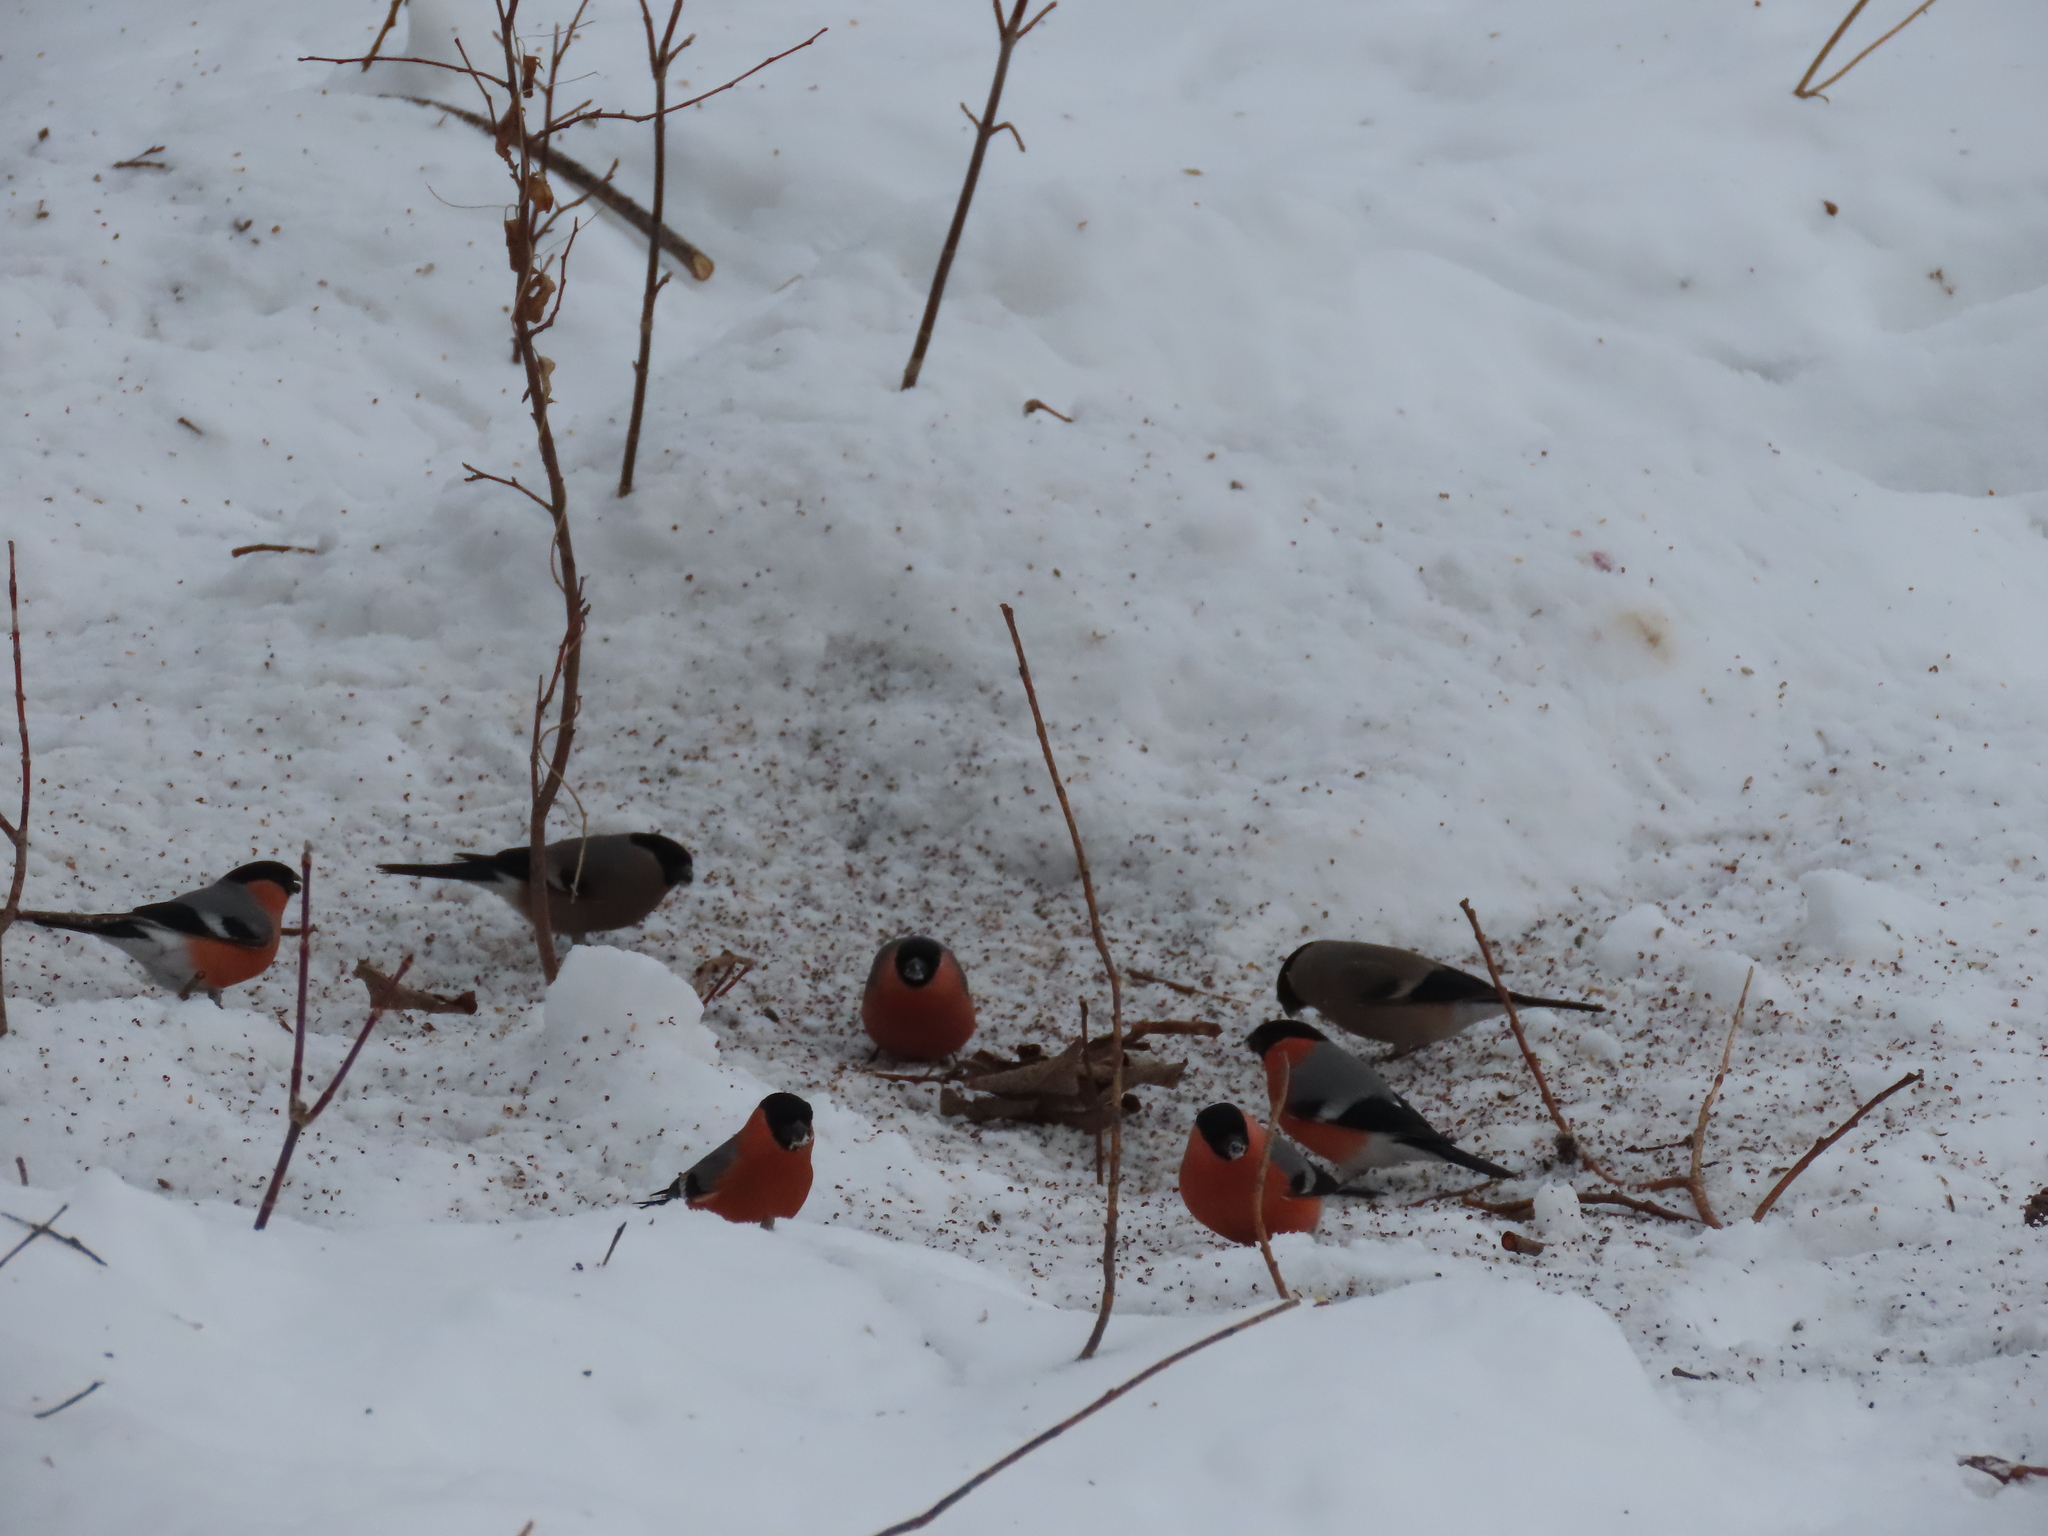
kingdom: Animalia
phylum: Chordata
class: Aves
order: Passeriformes
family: Fringillidae
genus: Pyrrhula
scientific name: Pyrrhula pyrrhula
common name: Eurasian bullfinch
